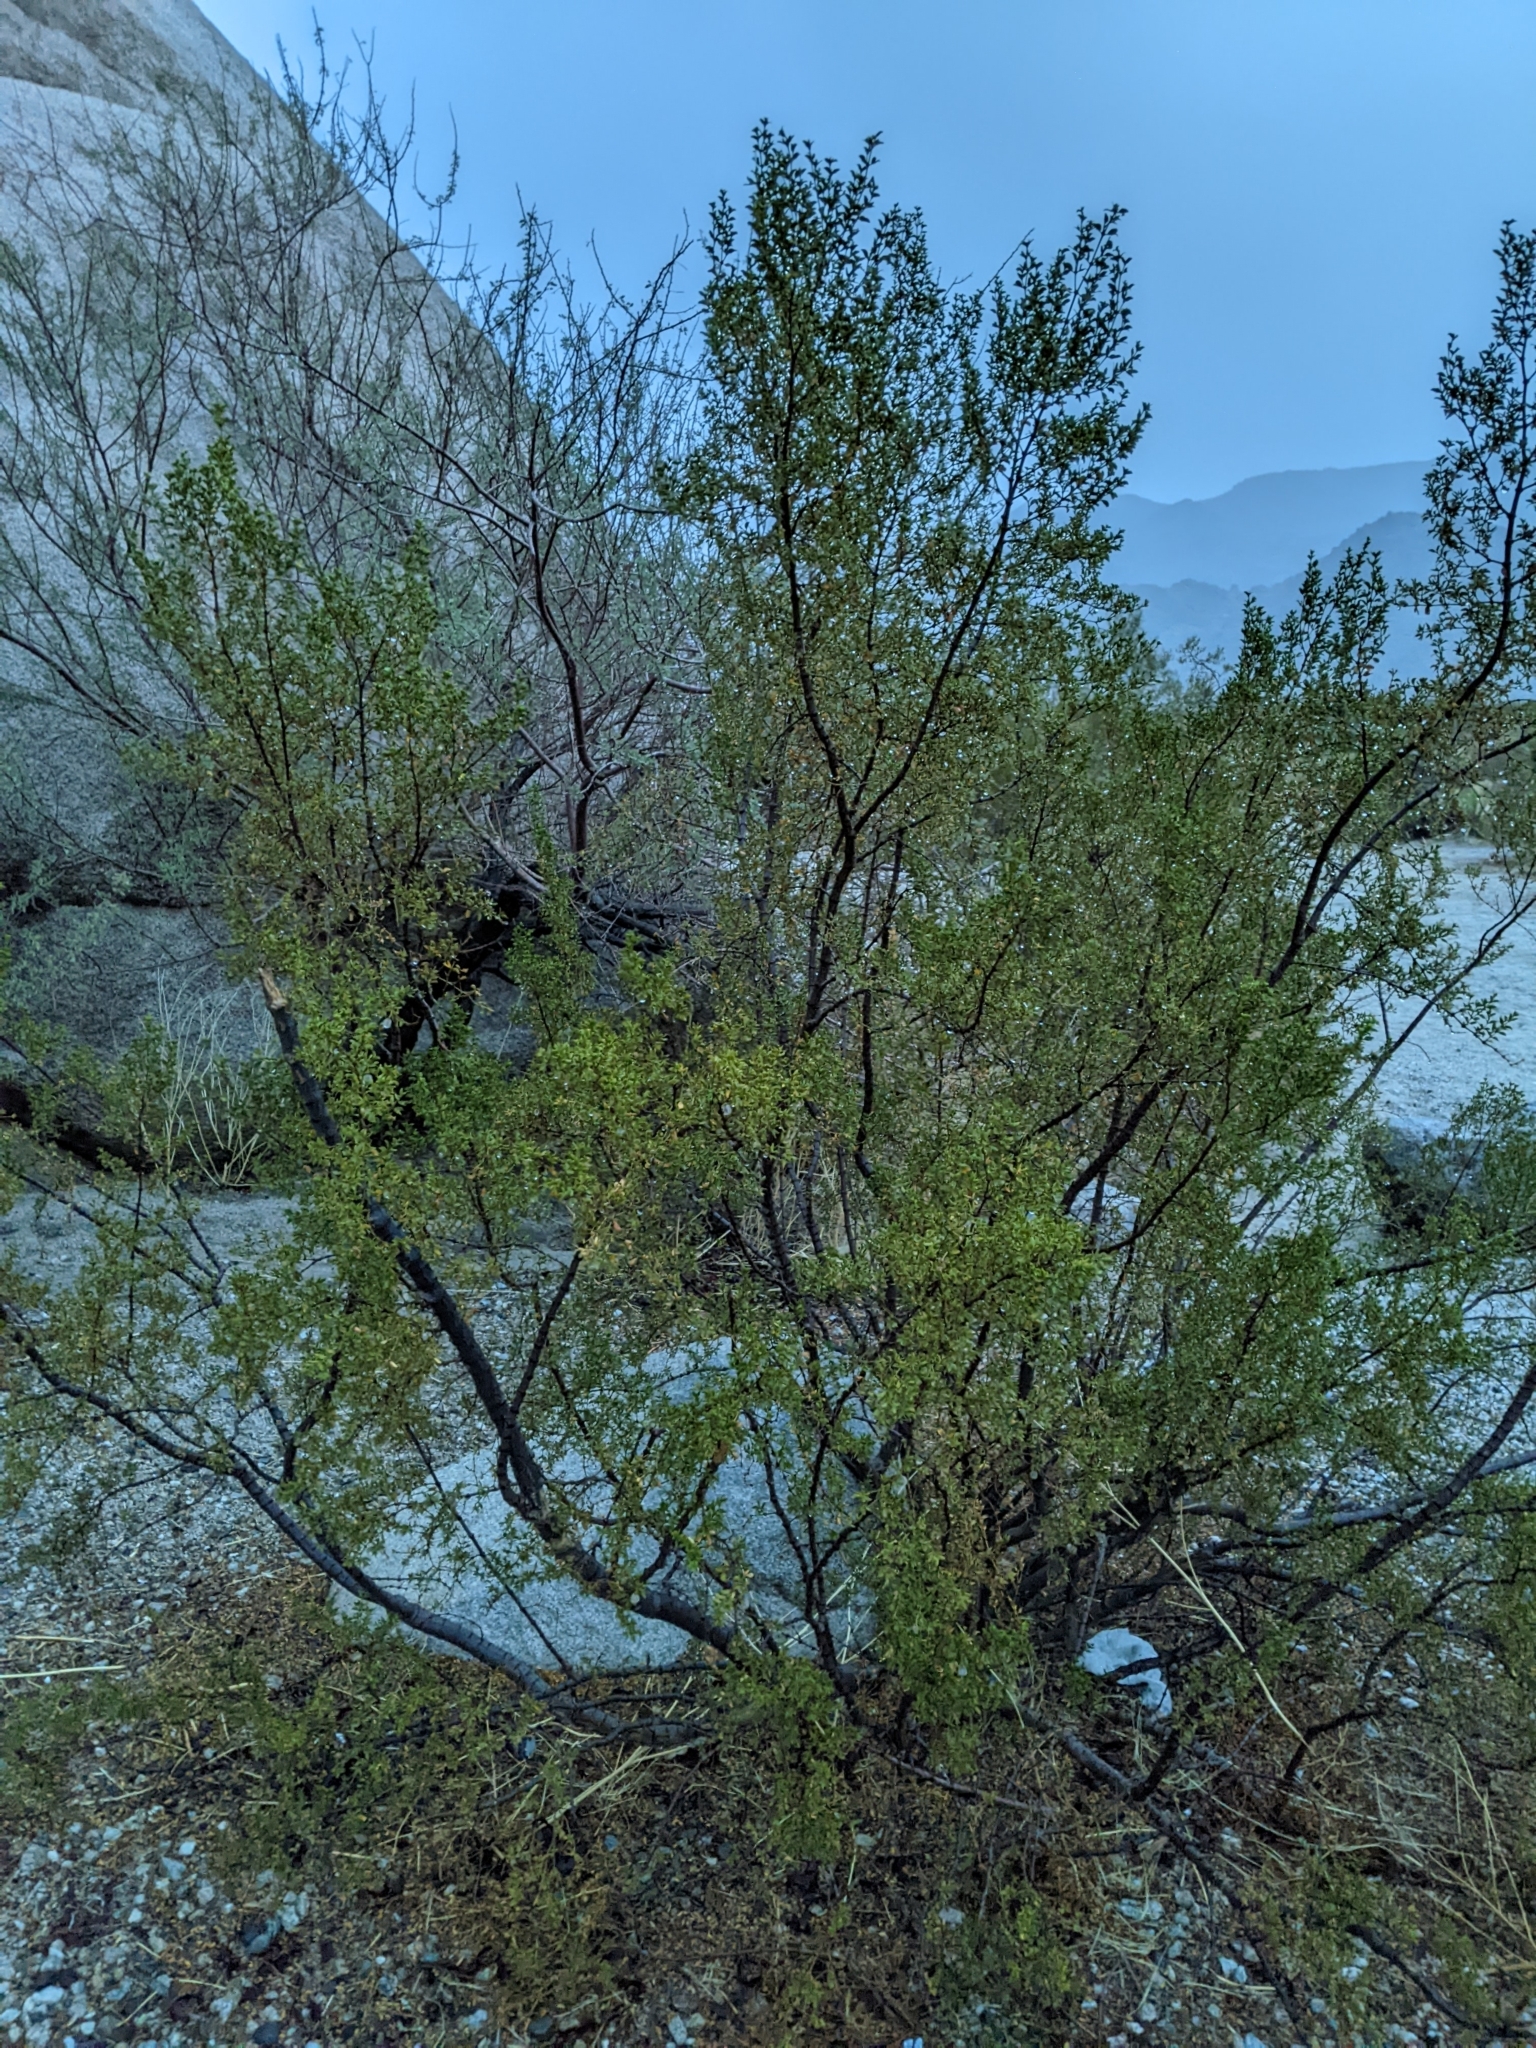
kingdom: Plantae
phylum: Tracheophyta
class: Magnoliopsida
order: Zygophyllales
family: Zygophyllaceae
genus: Larrea
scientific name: Larrea tridentata
